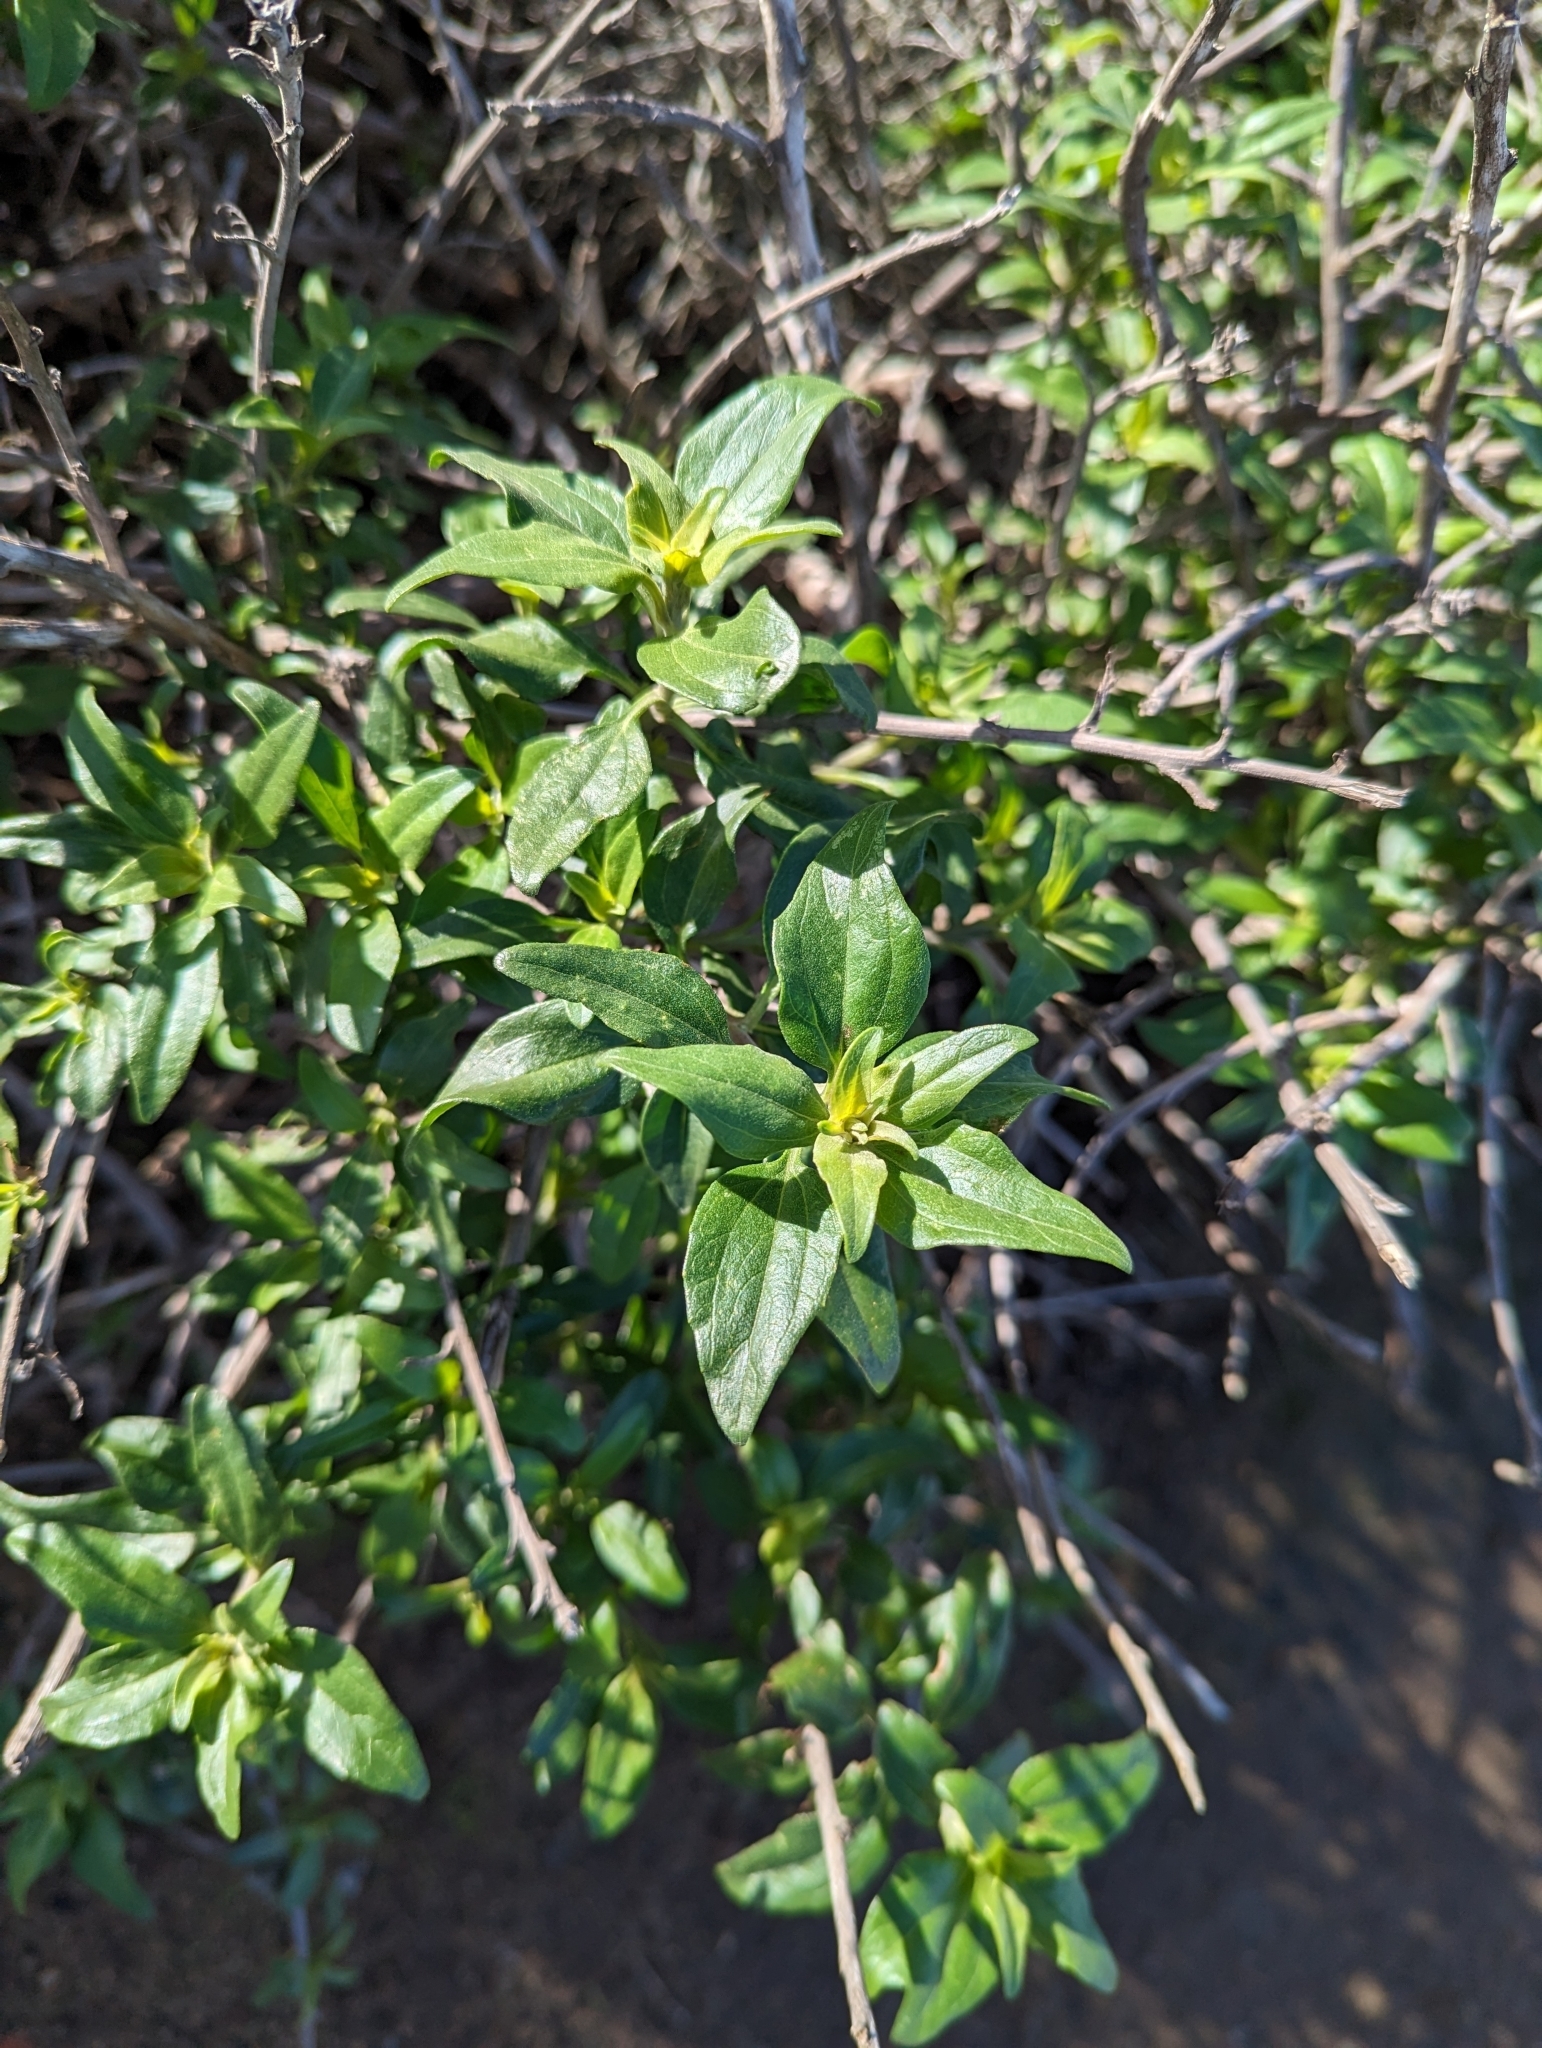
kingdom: Plantae
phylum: Tracheophyta
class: Magnoliopsida
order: Asterales
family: Asteraceae
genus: Encelia
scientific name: Encelia californica
